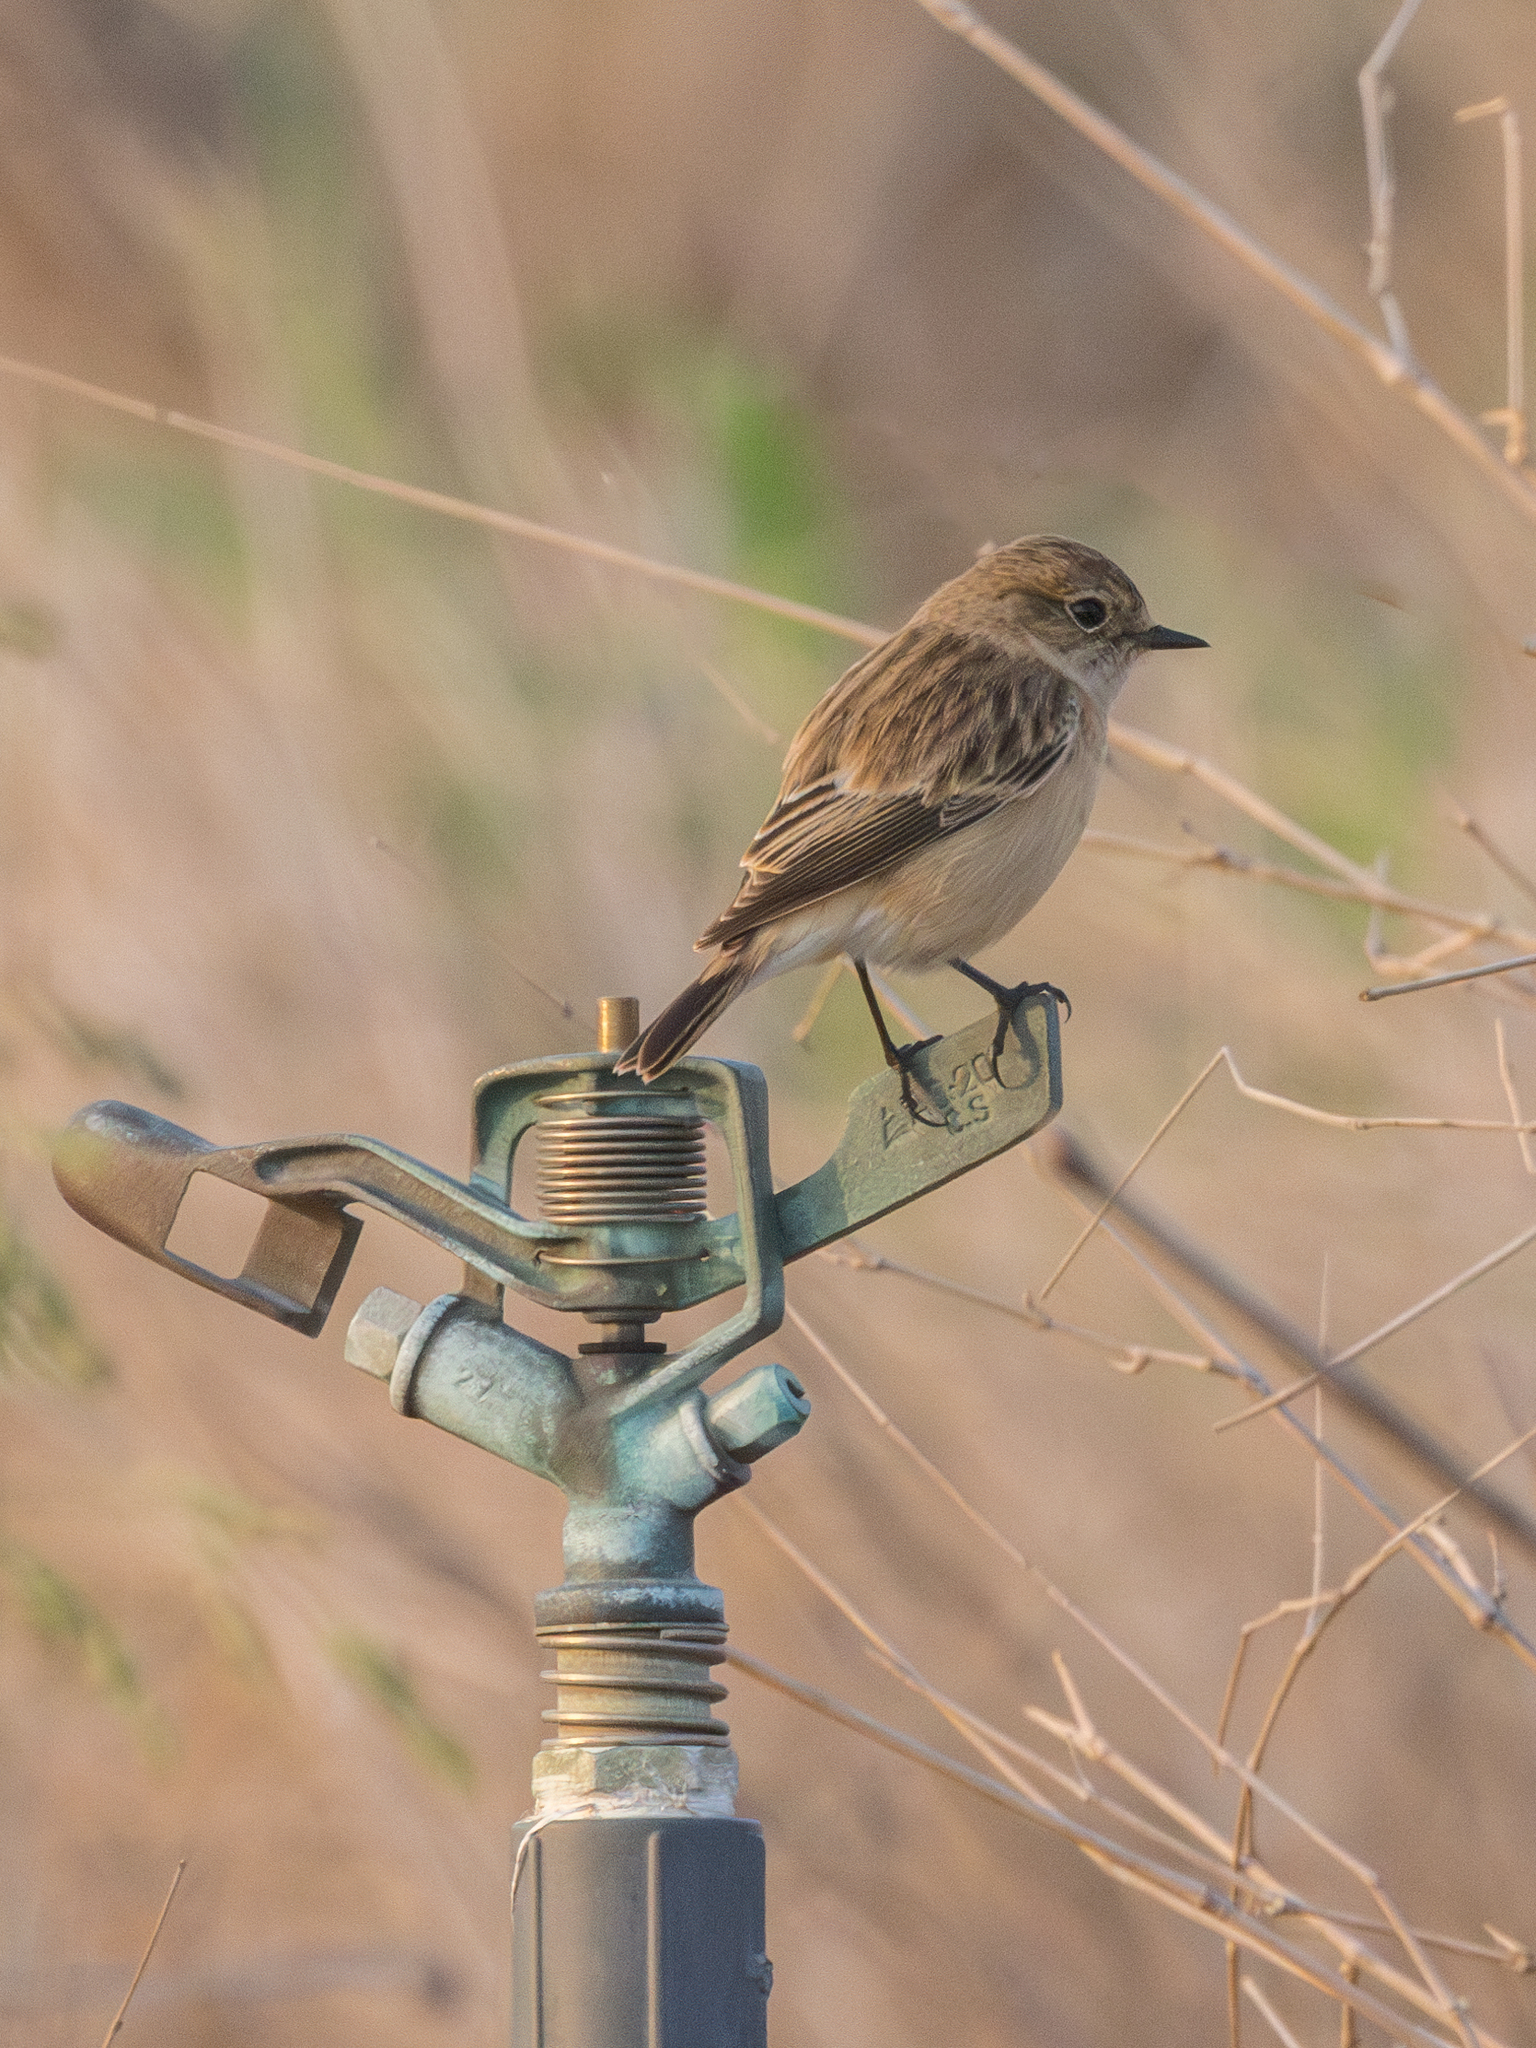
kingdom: Animalia
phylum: Chordata
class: Aves
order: Passeriformes
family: Muscicapidae
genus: Saxicola
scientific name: Saxicola maurus
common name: Siberian stonechat
